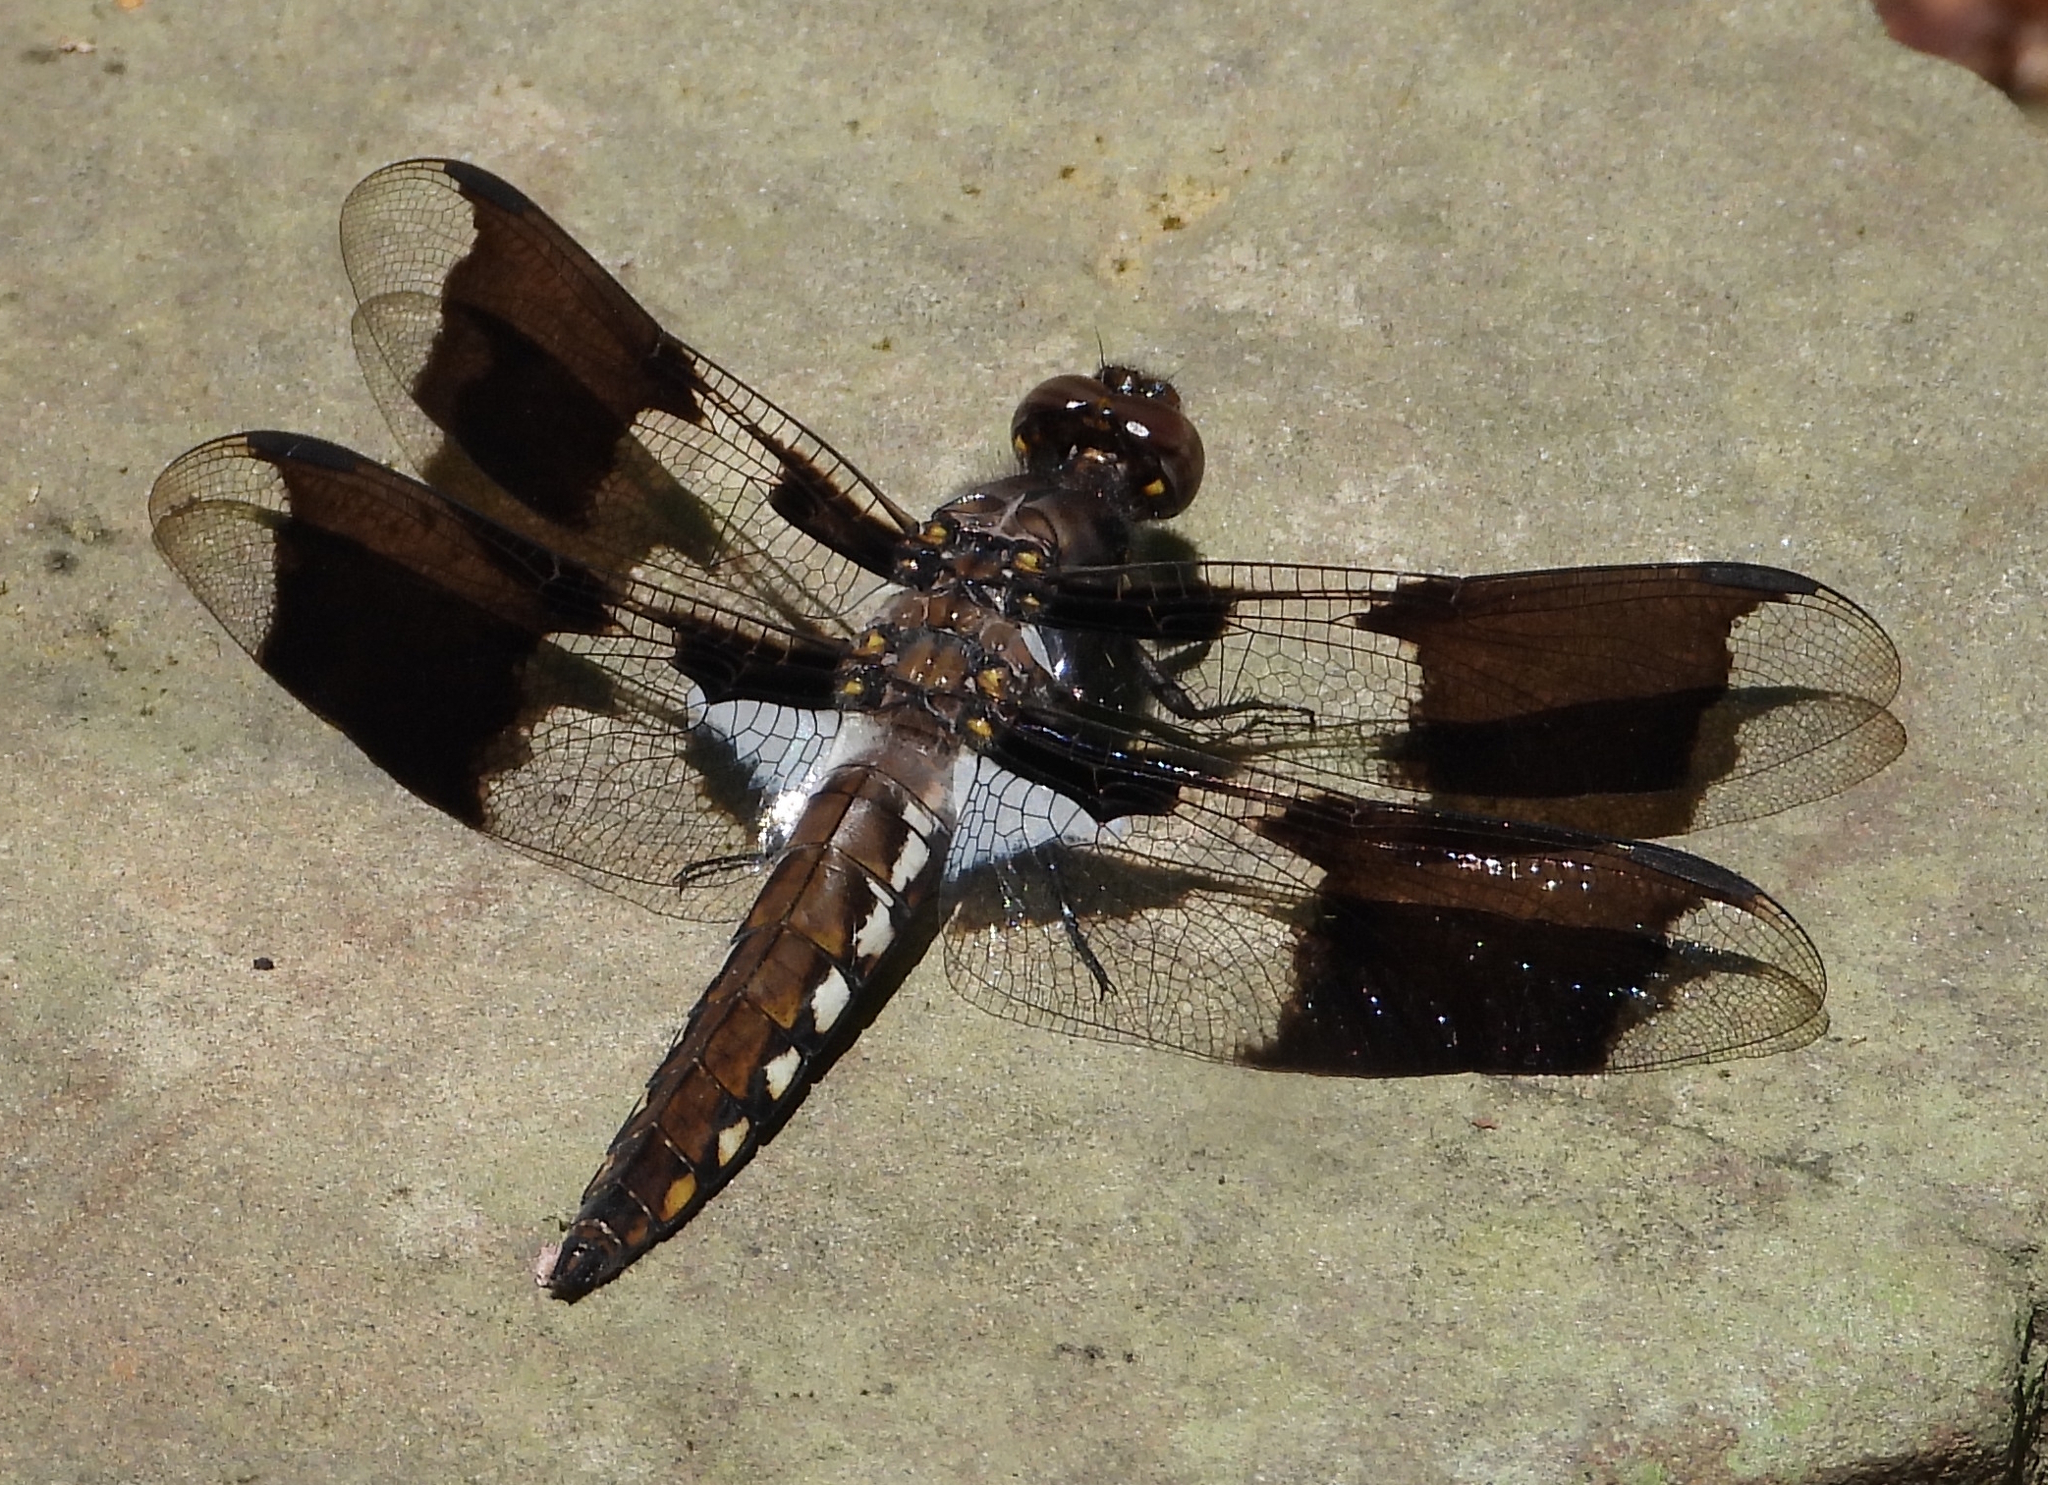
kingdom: Animalia
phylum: Arthropoda
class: Insecta
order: Odonata
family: Libellulidae
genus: Plathemis
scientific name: Plathemis lydia
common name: Common whitetail
